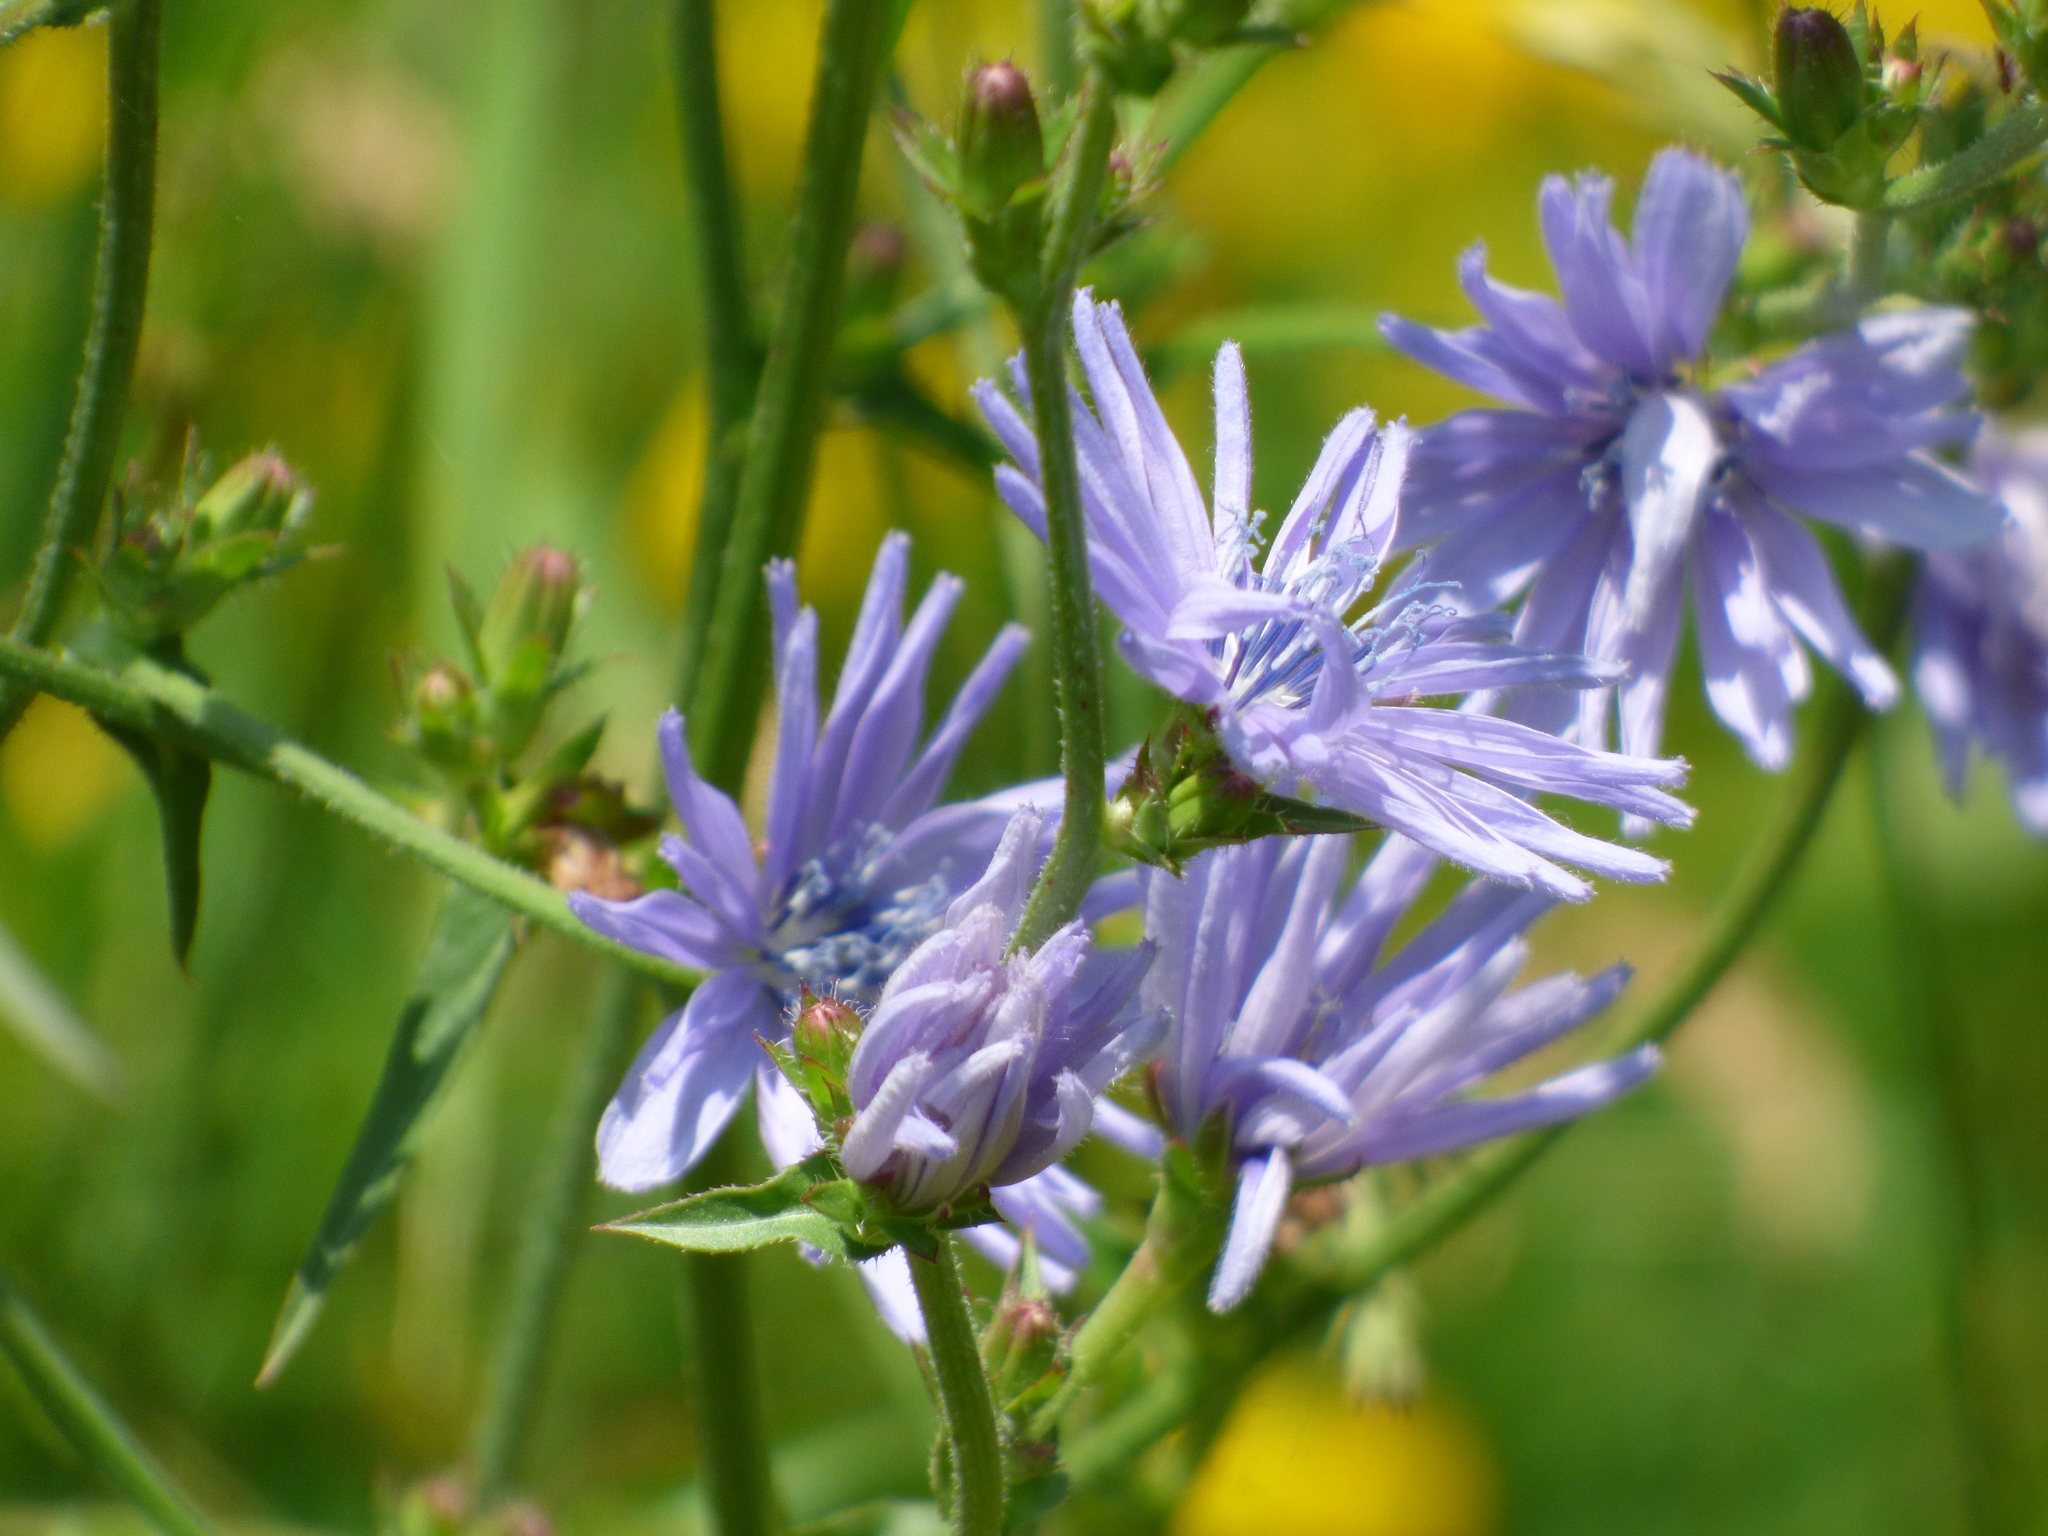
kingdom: Plantae
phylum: Tracheophyta
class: Magnoliopsida
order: Asterales
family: Asteraceae
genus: Cichorium
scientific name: Cichorium intybus
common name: Chicory
